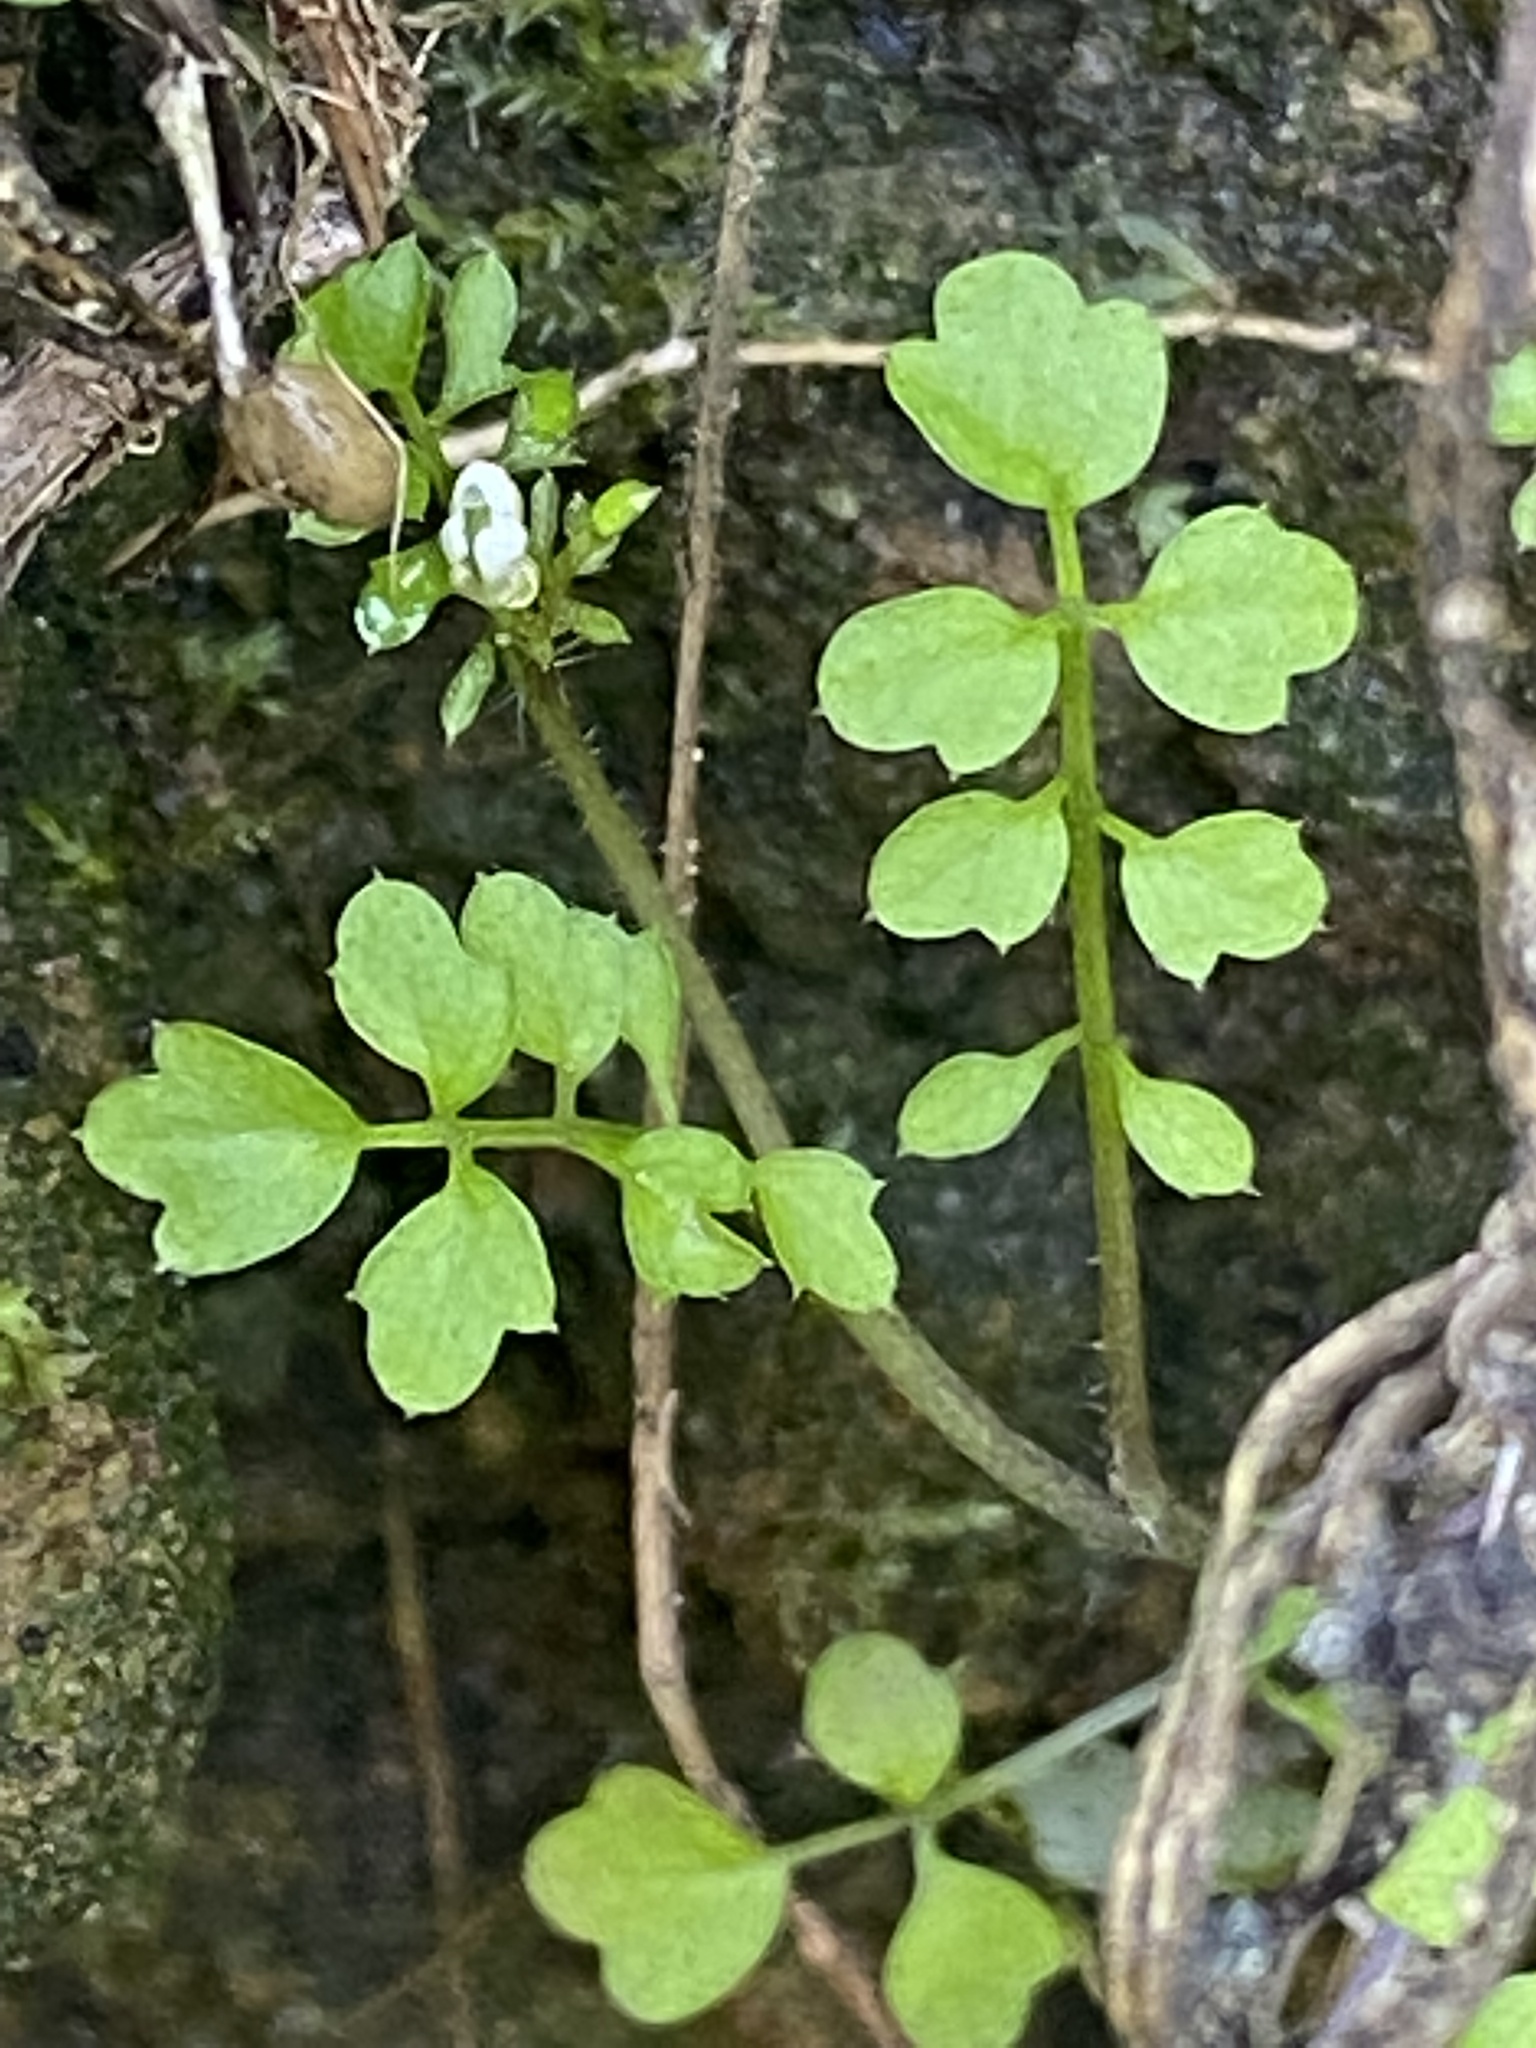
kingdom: Plantae
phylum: Tracheophyta
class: Magnoliopsida
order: Brassicales
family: Brassicaceae
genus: Cardamine
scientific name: Cardamine oligosperma
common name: Idaho bittercress
